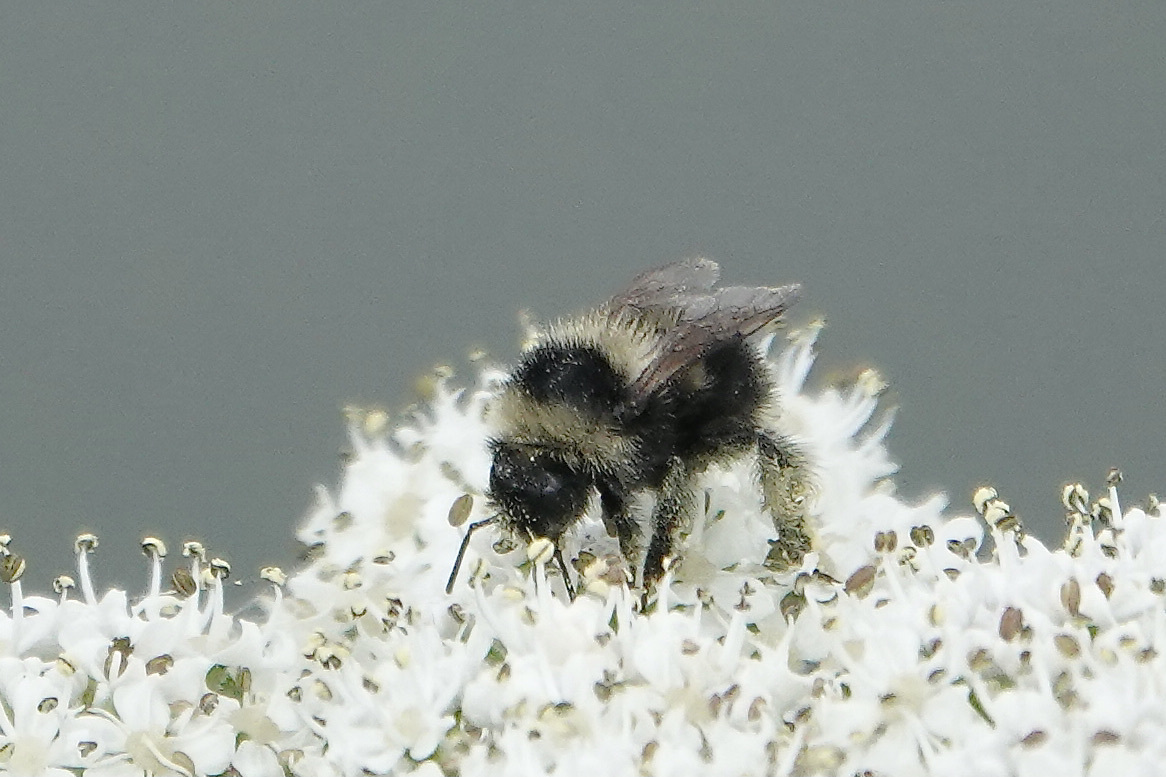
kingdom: Animalia
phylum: Arthropoda
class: Insecta
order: Hymenoptera
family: Apidae
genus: Bombus
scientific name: Bombus rufocinctus
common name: Red-belted bumble bee
